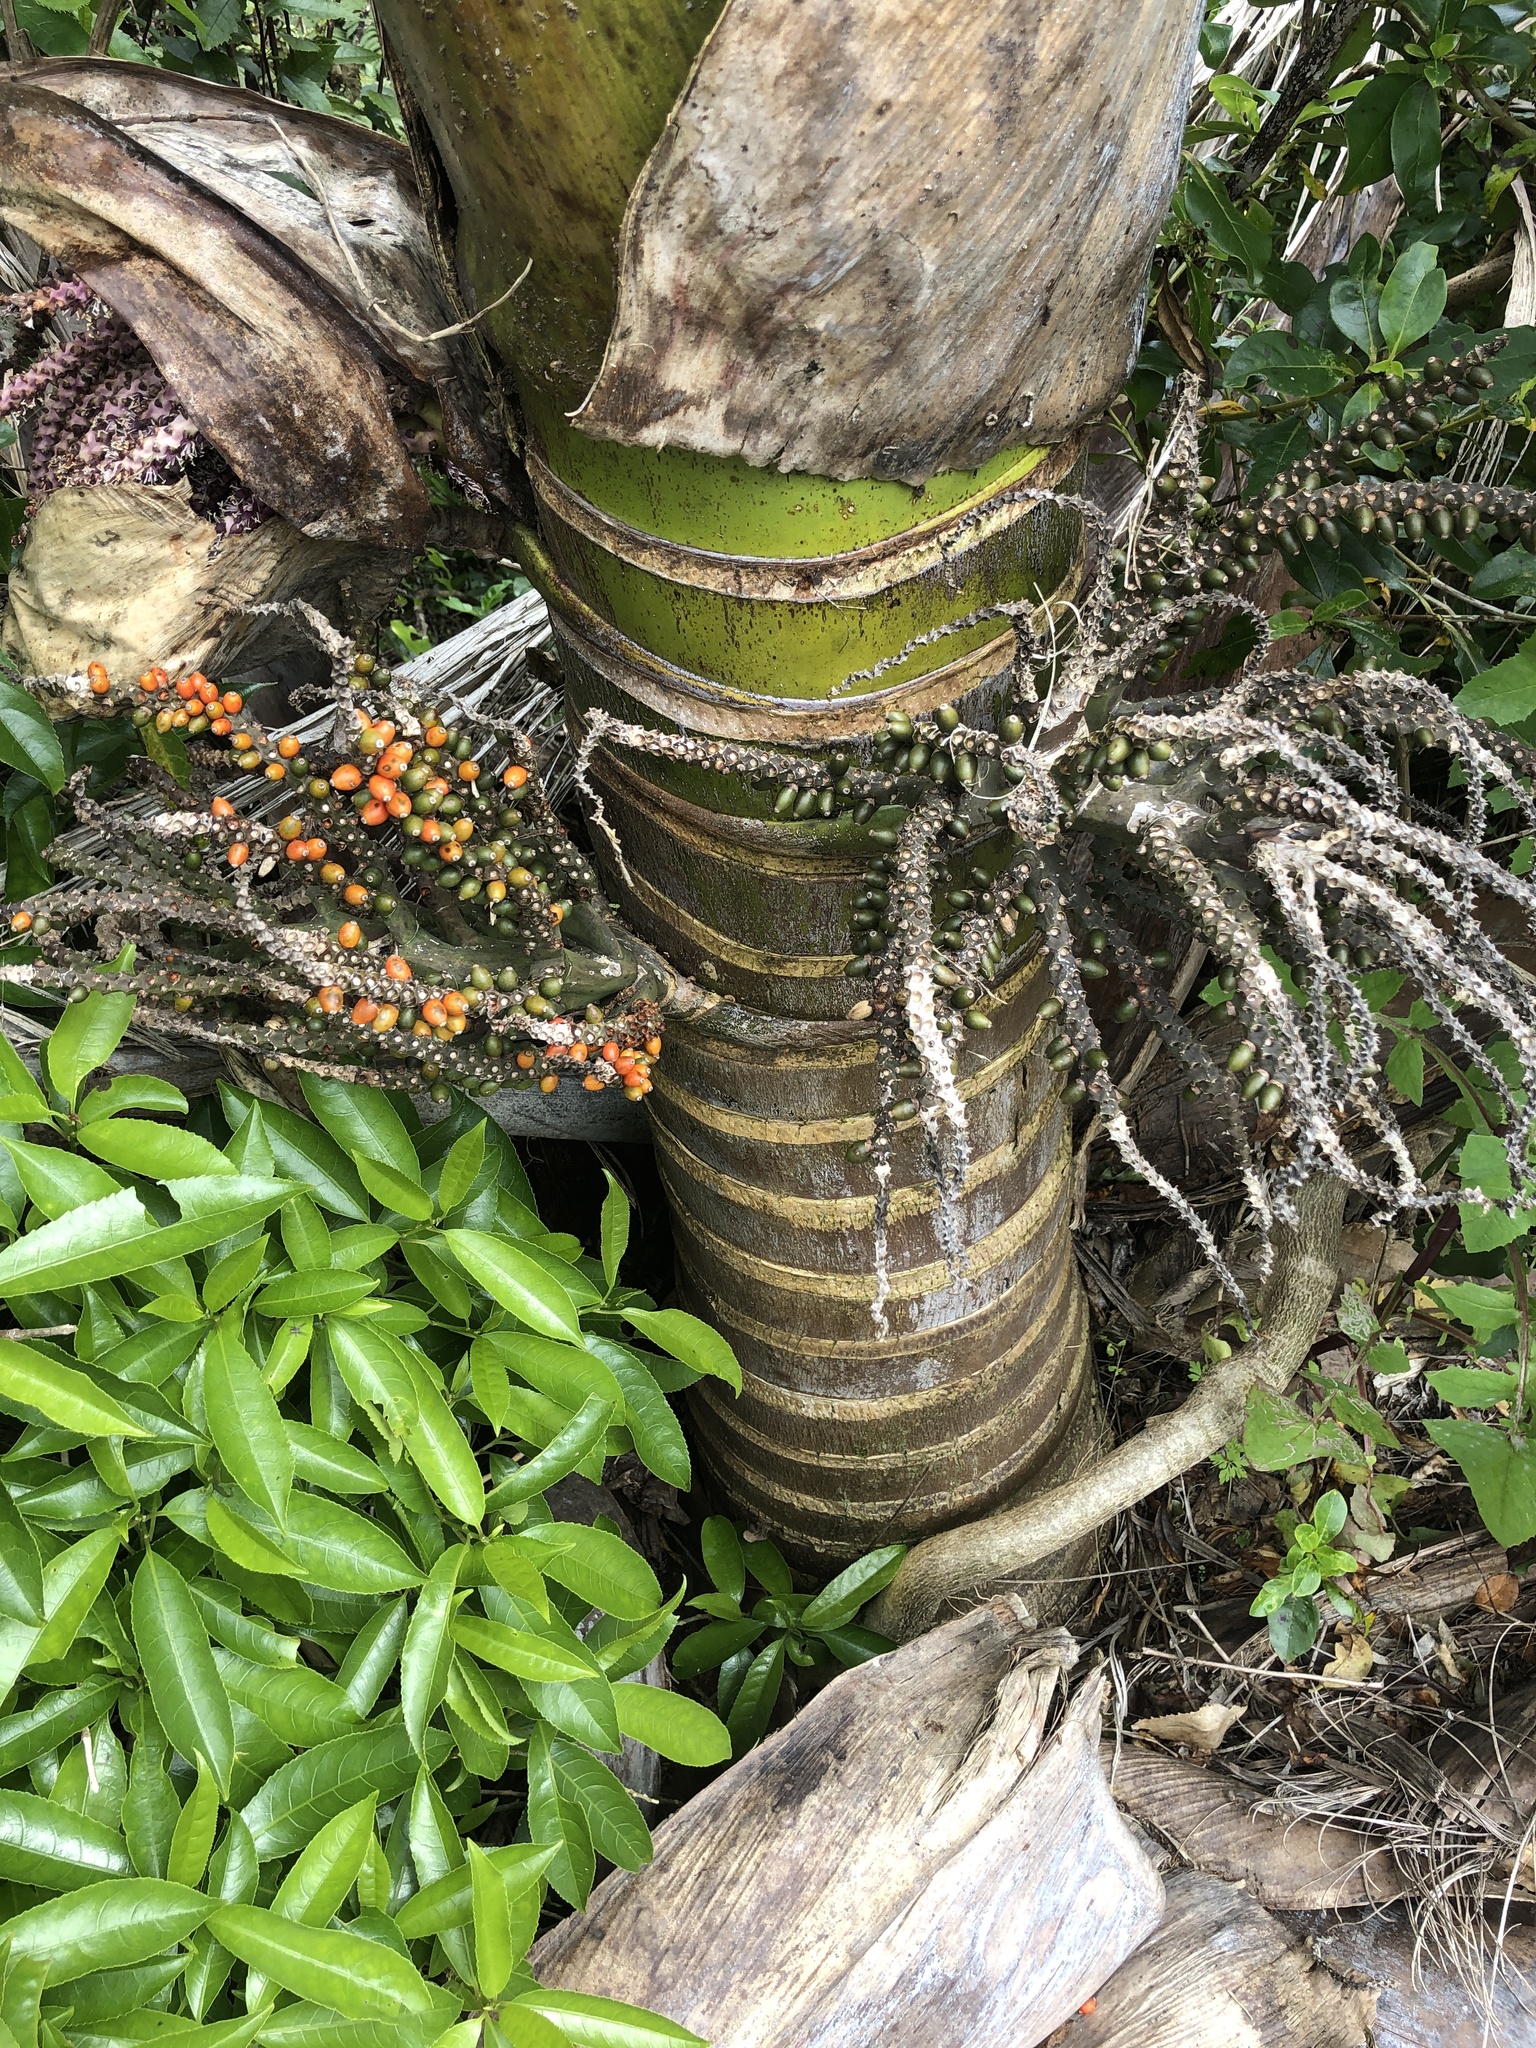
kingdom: Plantae
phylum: Tracheophyta
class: Liliopsida
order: Arecales
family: Arecaceae
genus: Rhopalostylis
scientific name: Rhopalostylis sapida
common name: Feather-duster palm
